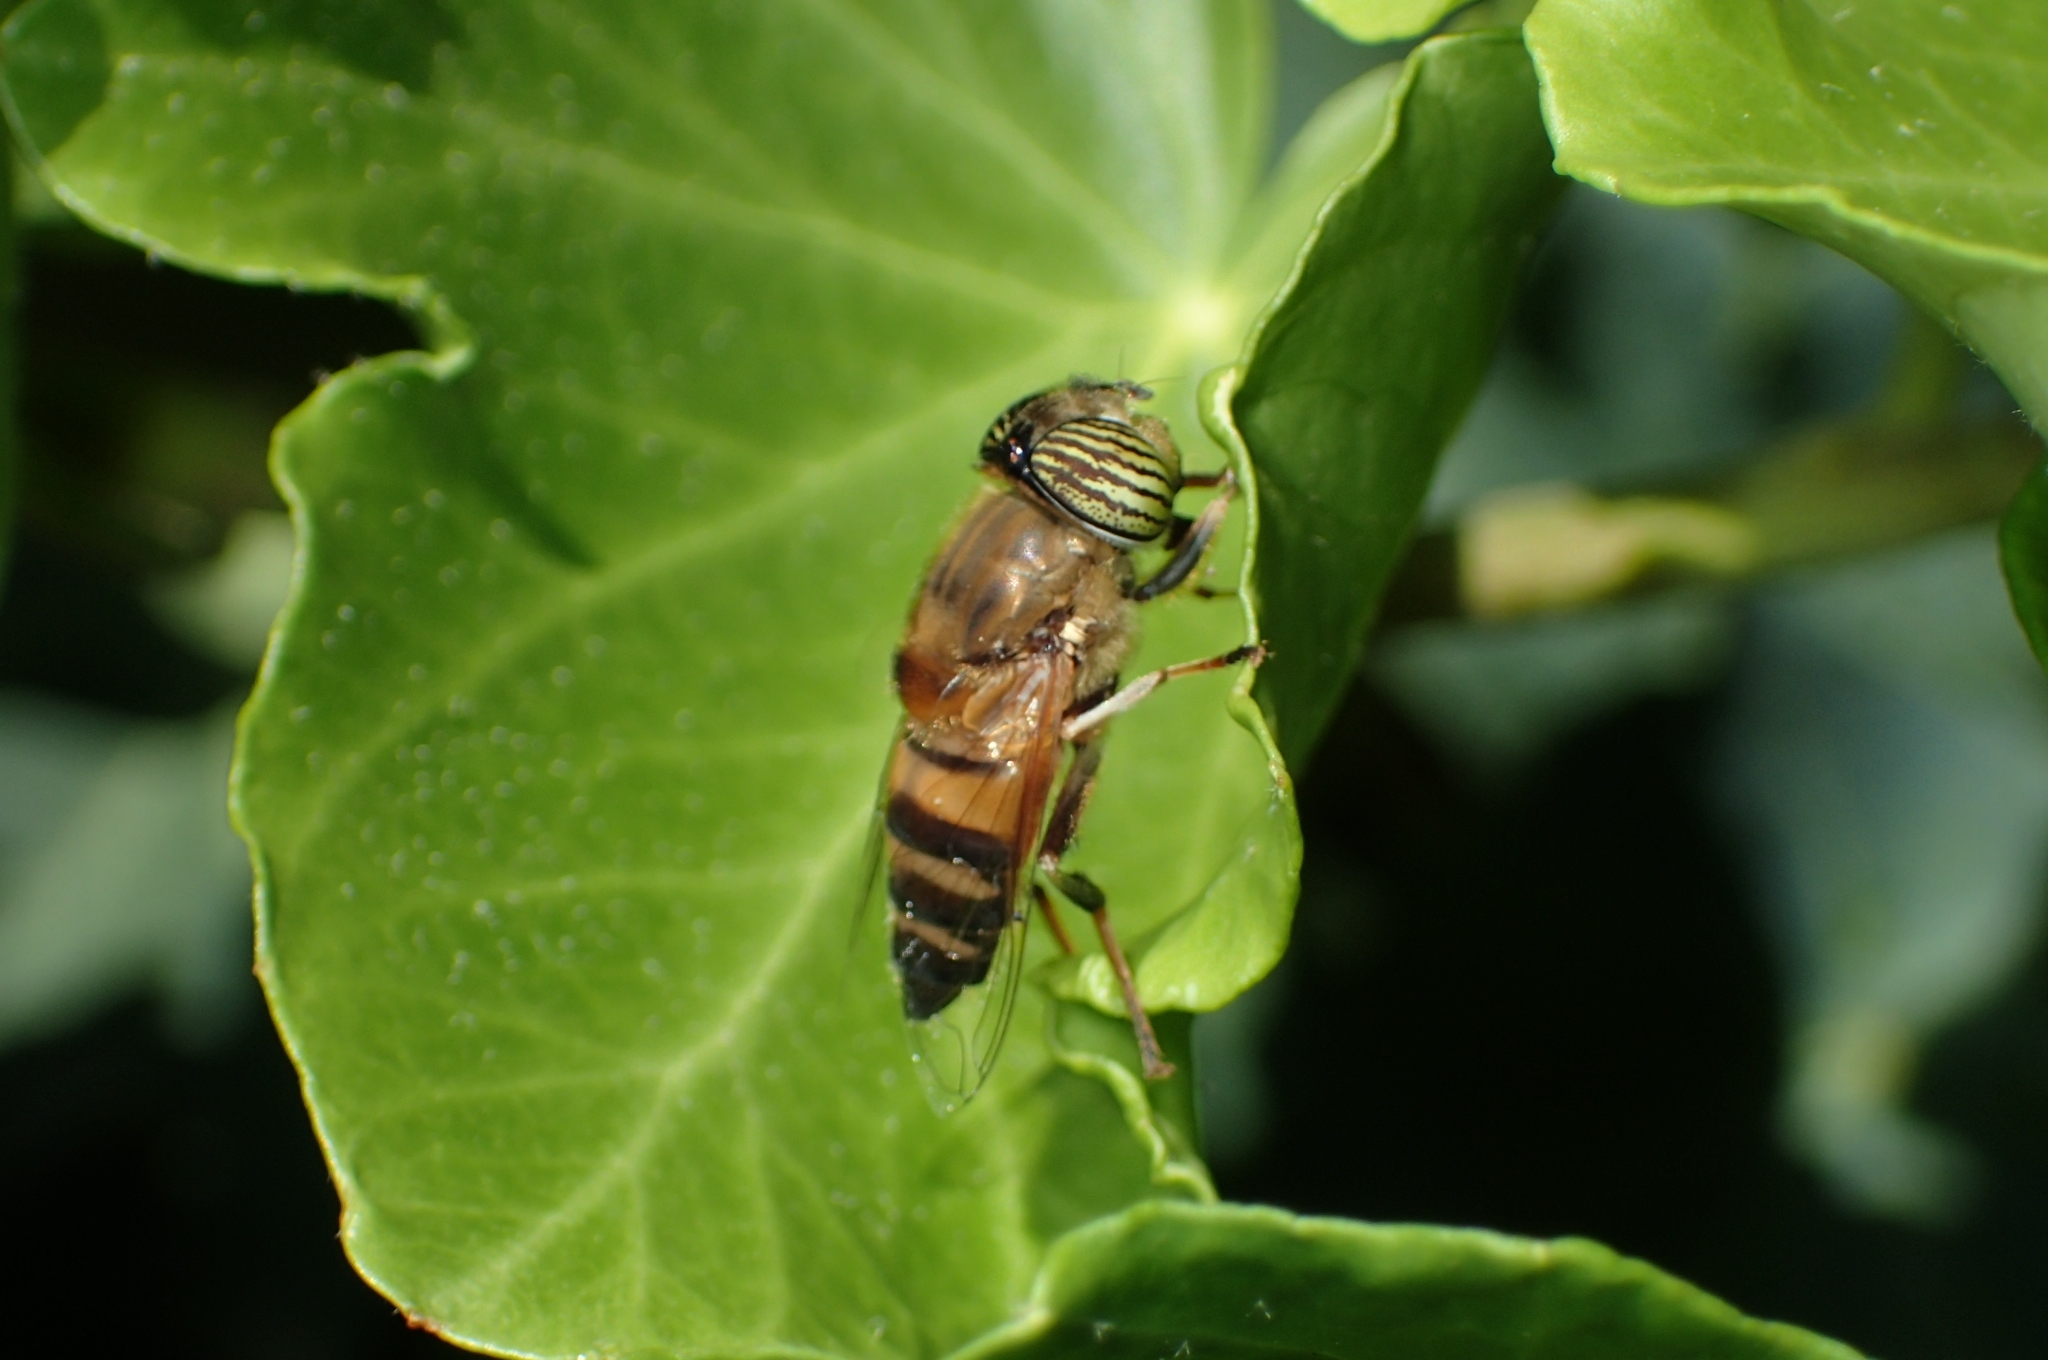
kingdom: Animalia
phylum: Arthropoda
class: Insecta
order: Diptera
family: Syrphidae
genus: Eristalinus
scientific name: Eristalinus taeniops
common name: Syrphid fly
